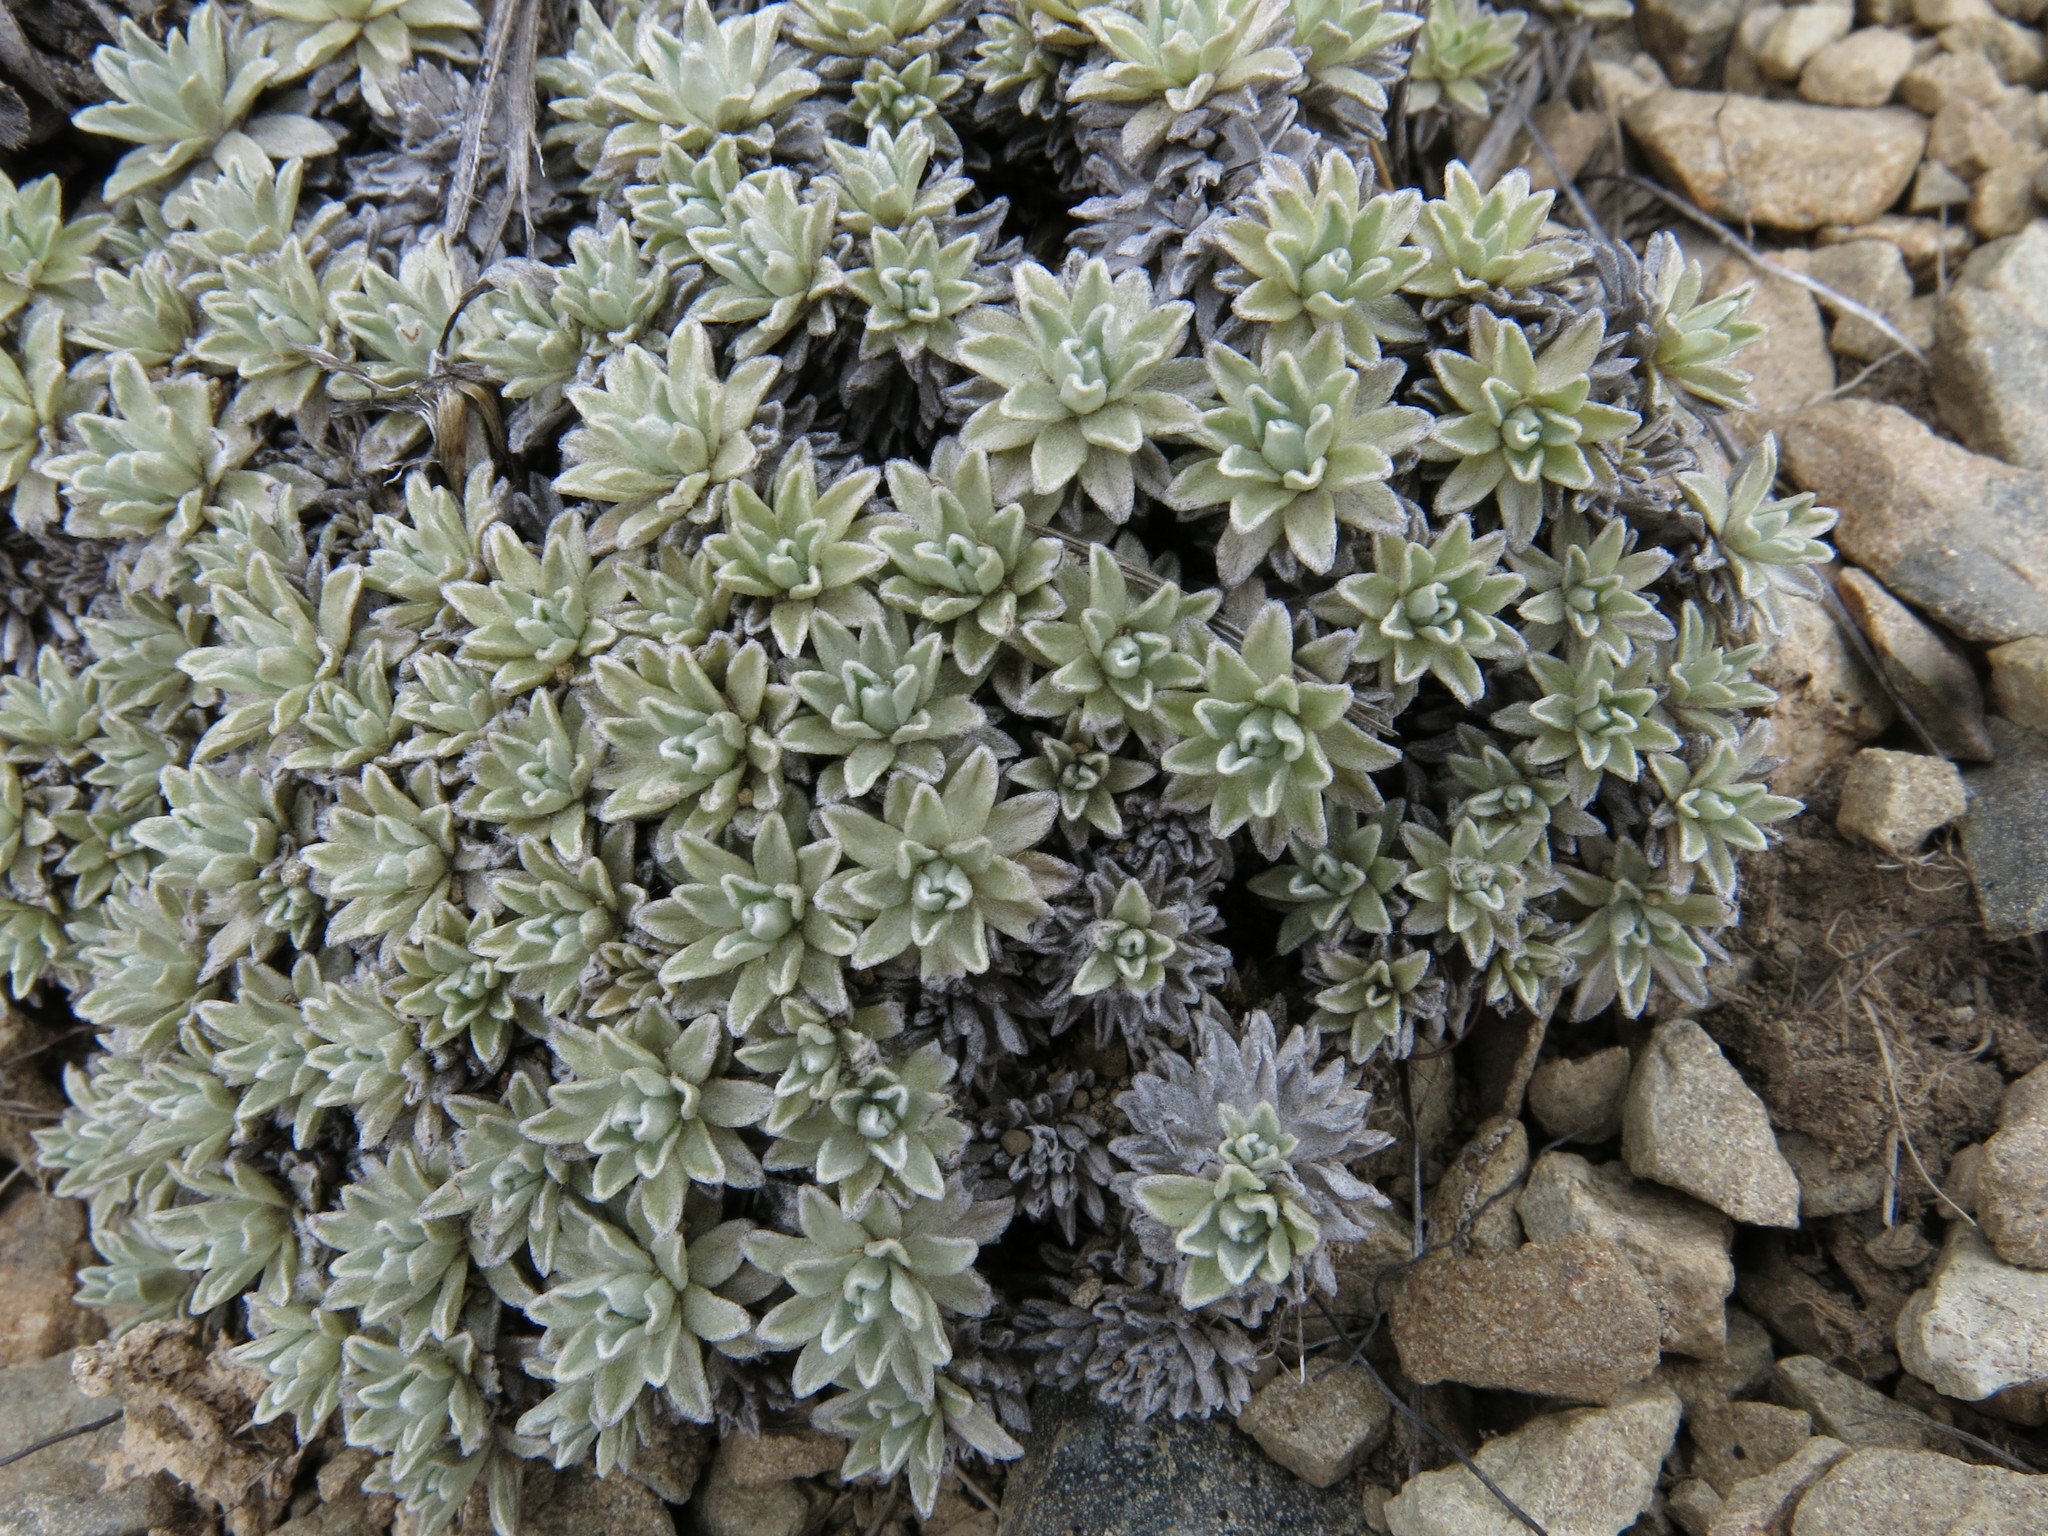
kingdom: Plantae
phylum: Tracheophyta
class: Magnoliopsida
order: Asterales
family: Asteraceae
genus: Argyrotegium
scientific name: Argyrotegium nitidulum
